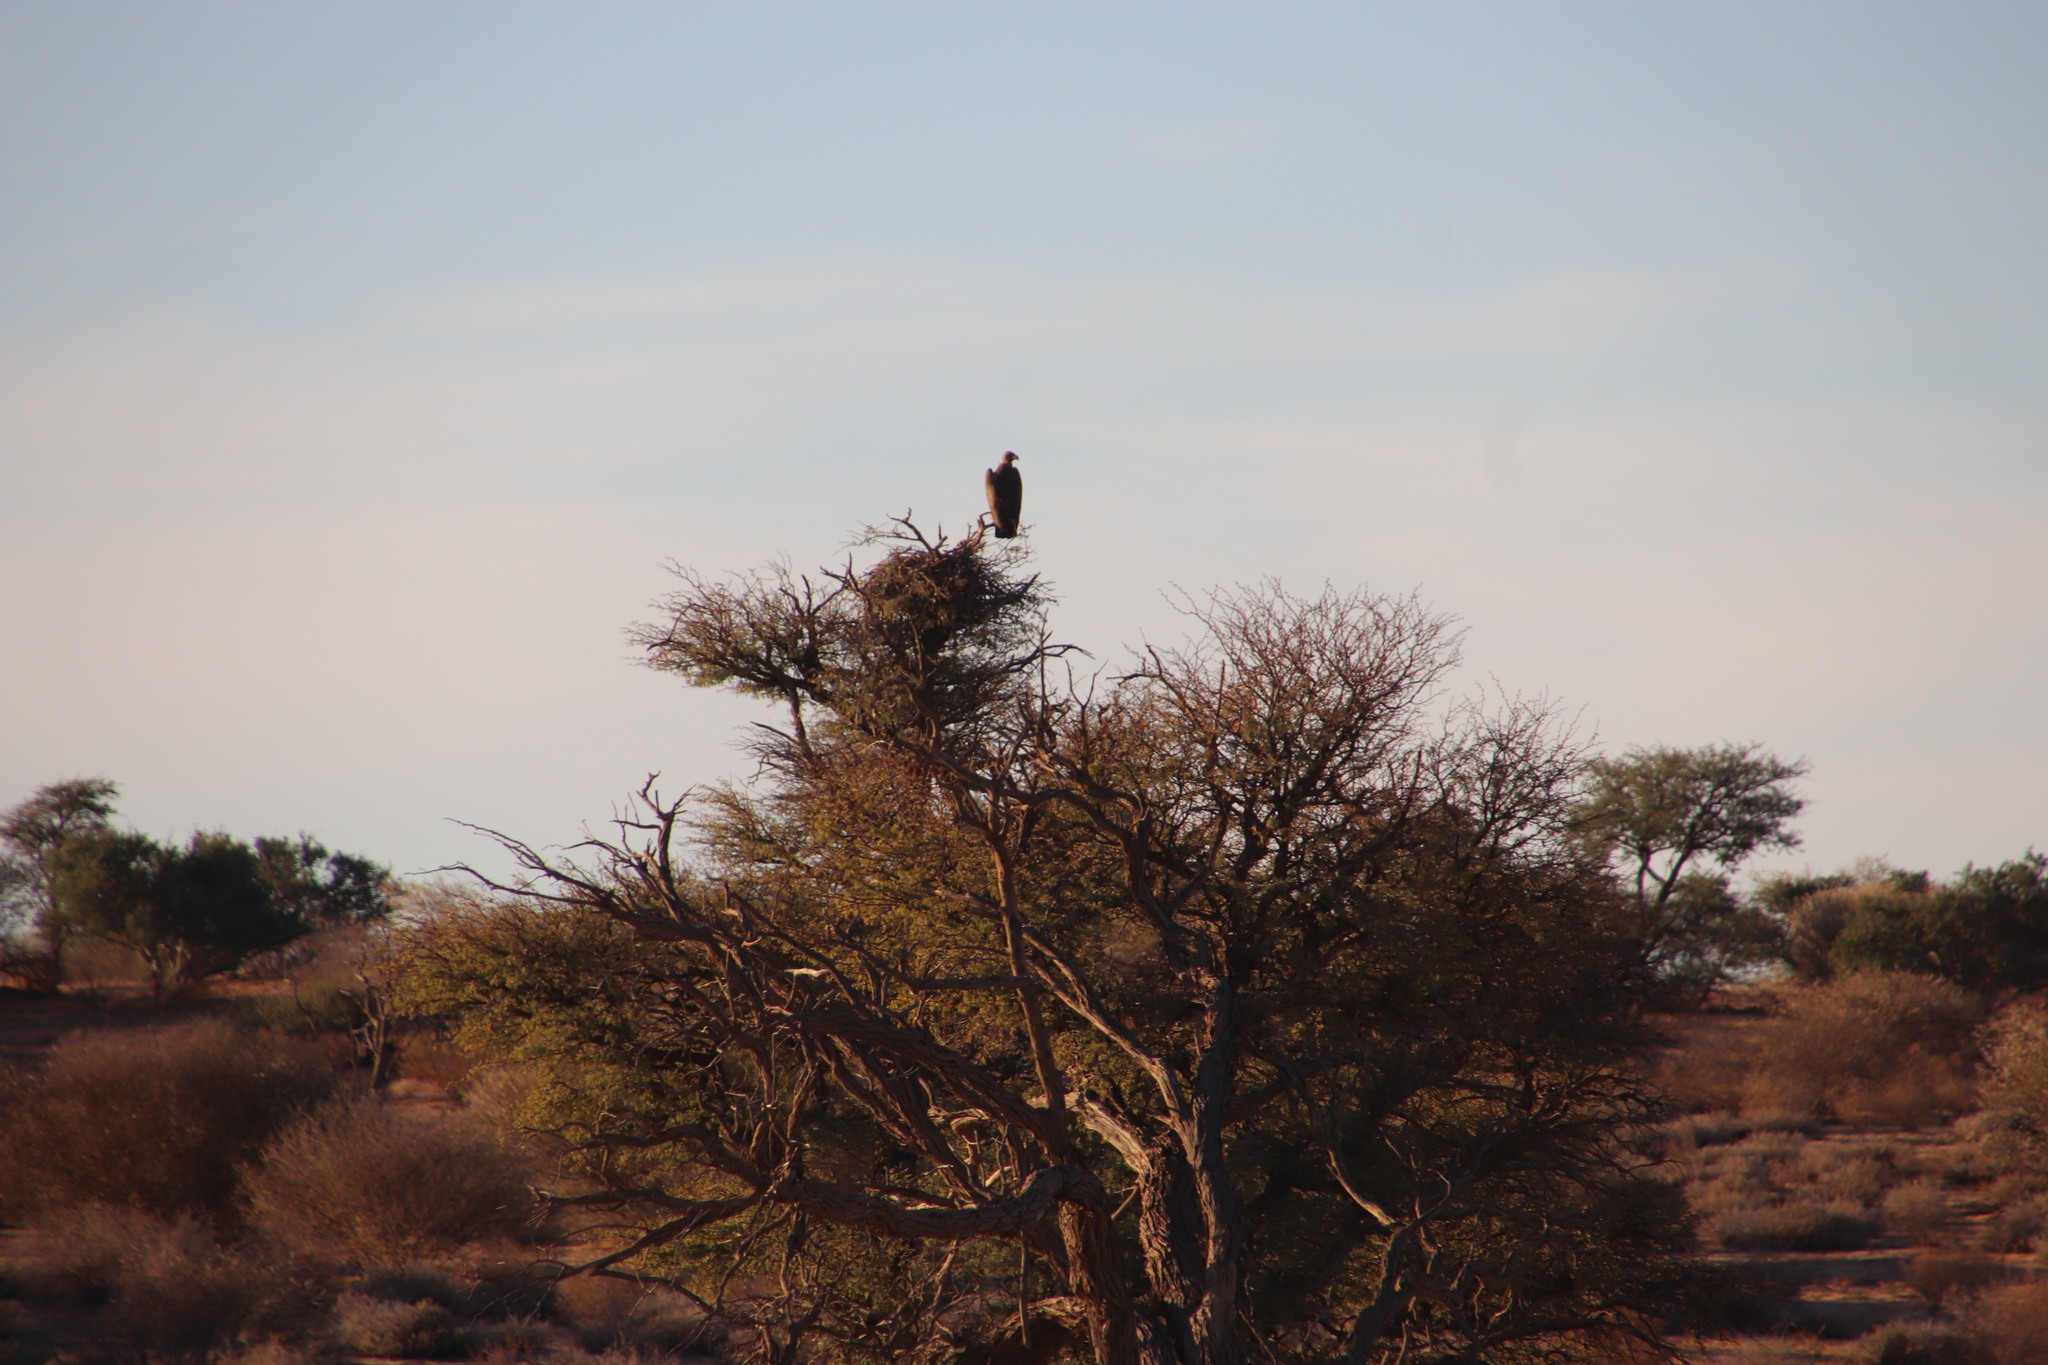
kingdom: Animalia
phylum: Chordata
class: Aves
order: Accipitriformes
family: Accipitridae
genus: Gyps
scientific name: Gyps africanus
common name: White-backed vulture
